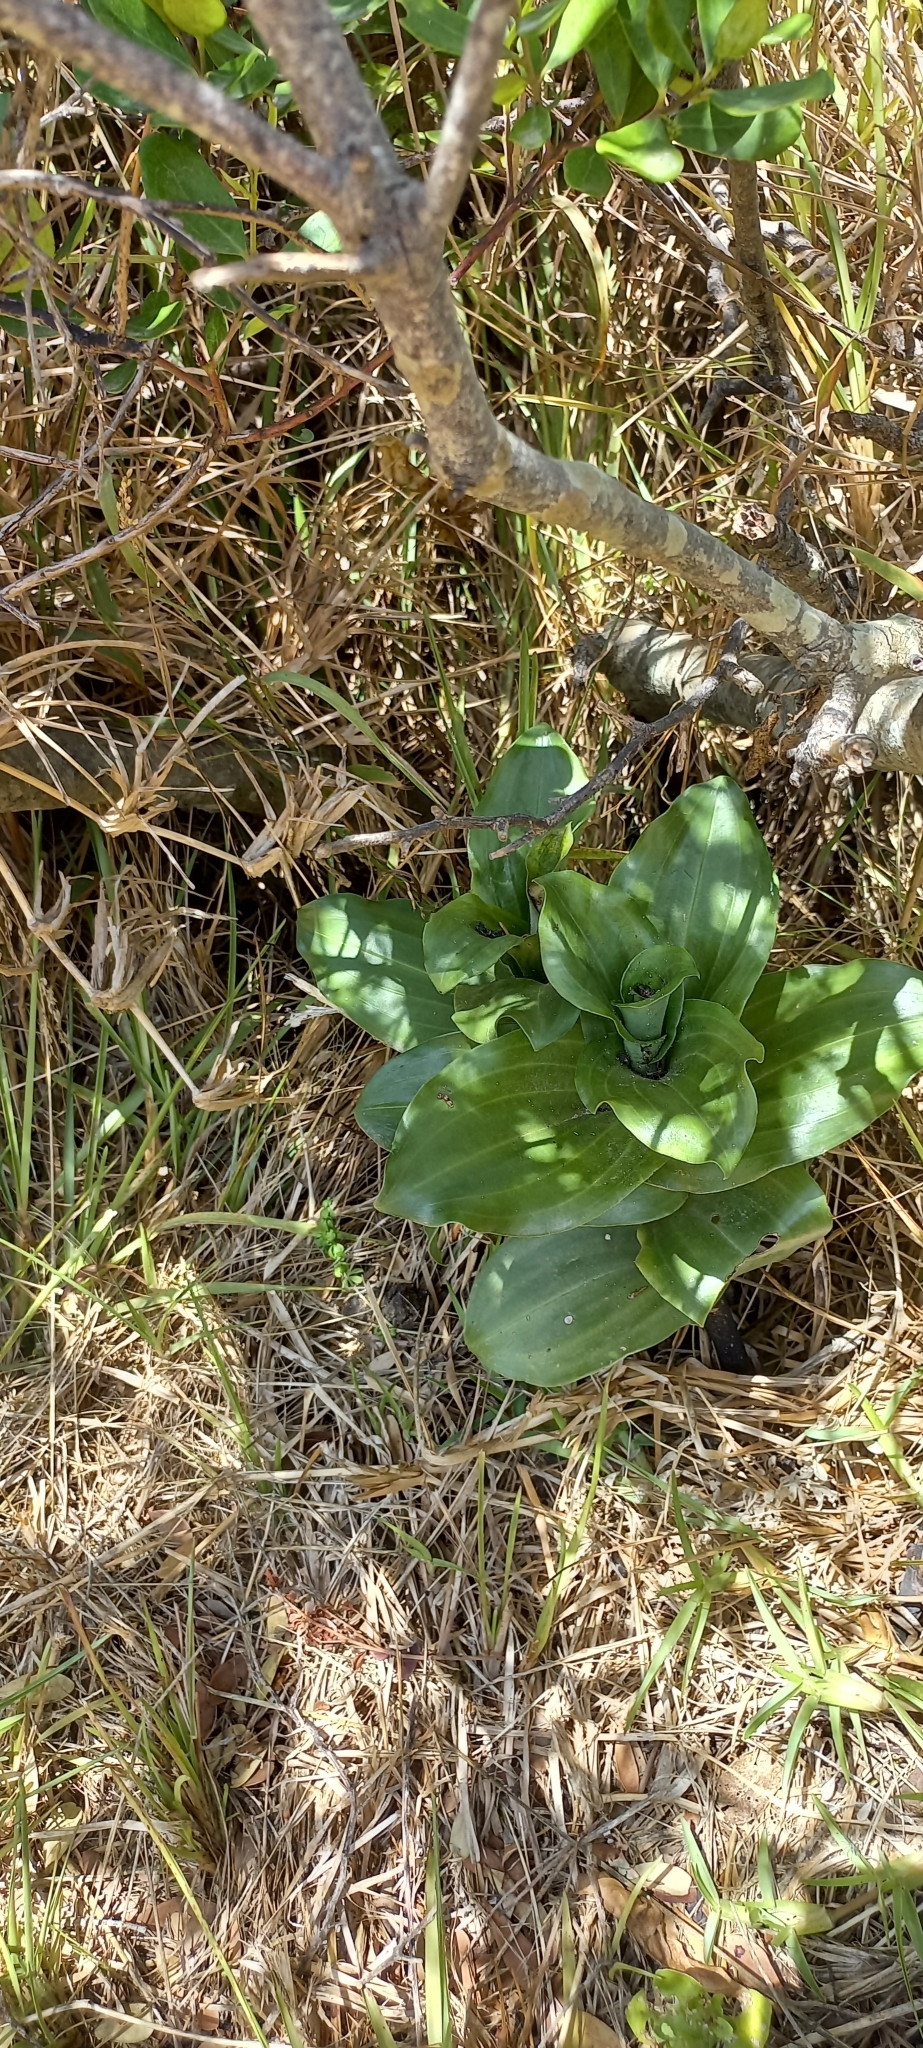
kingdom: Plantae
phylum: Tracheophyta
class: Liliopsida
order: Asparagales
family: Orchidaceae
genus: Bonatea
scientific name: Bonatea speciosa
